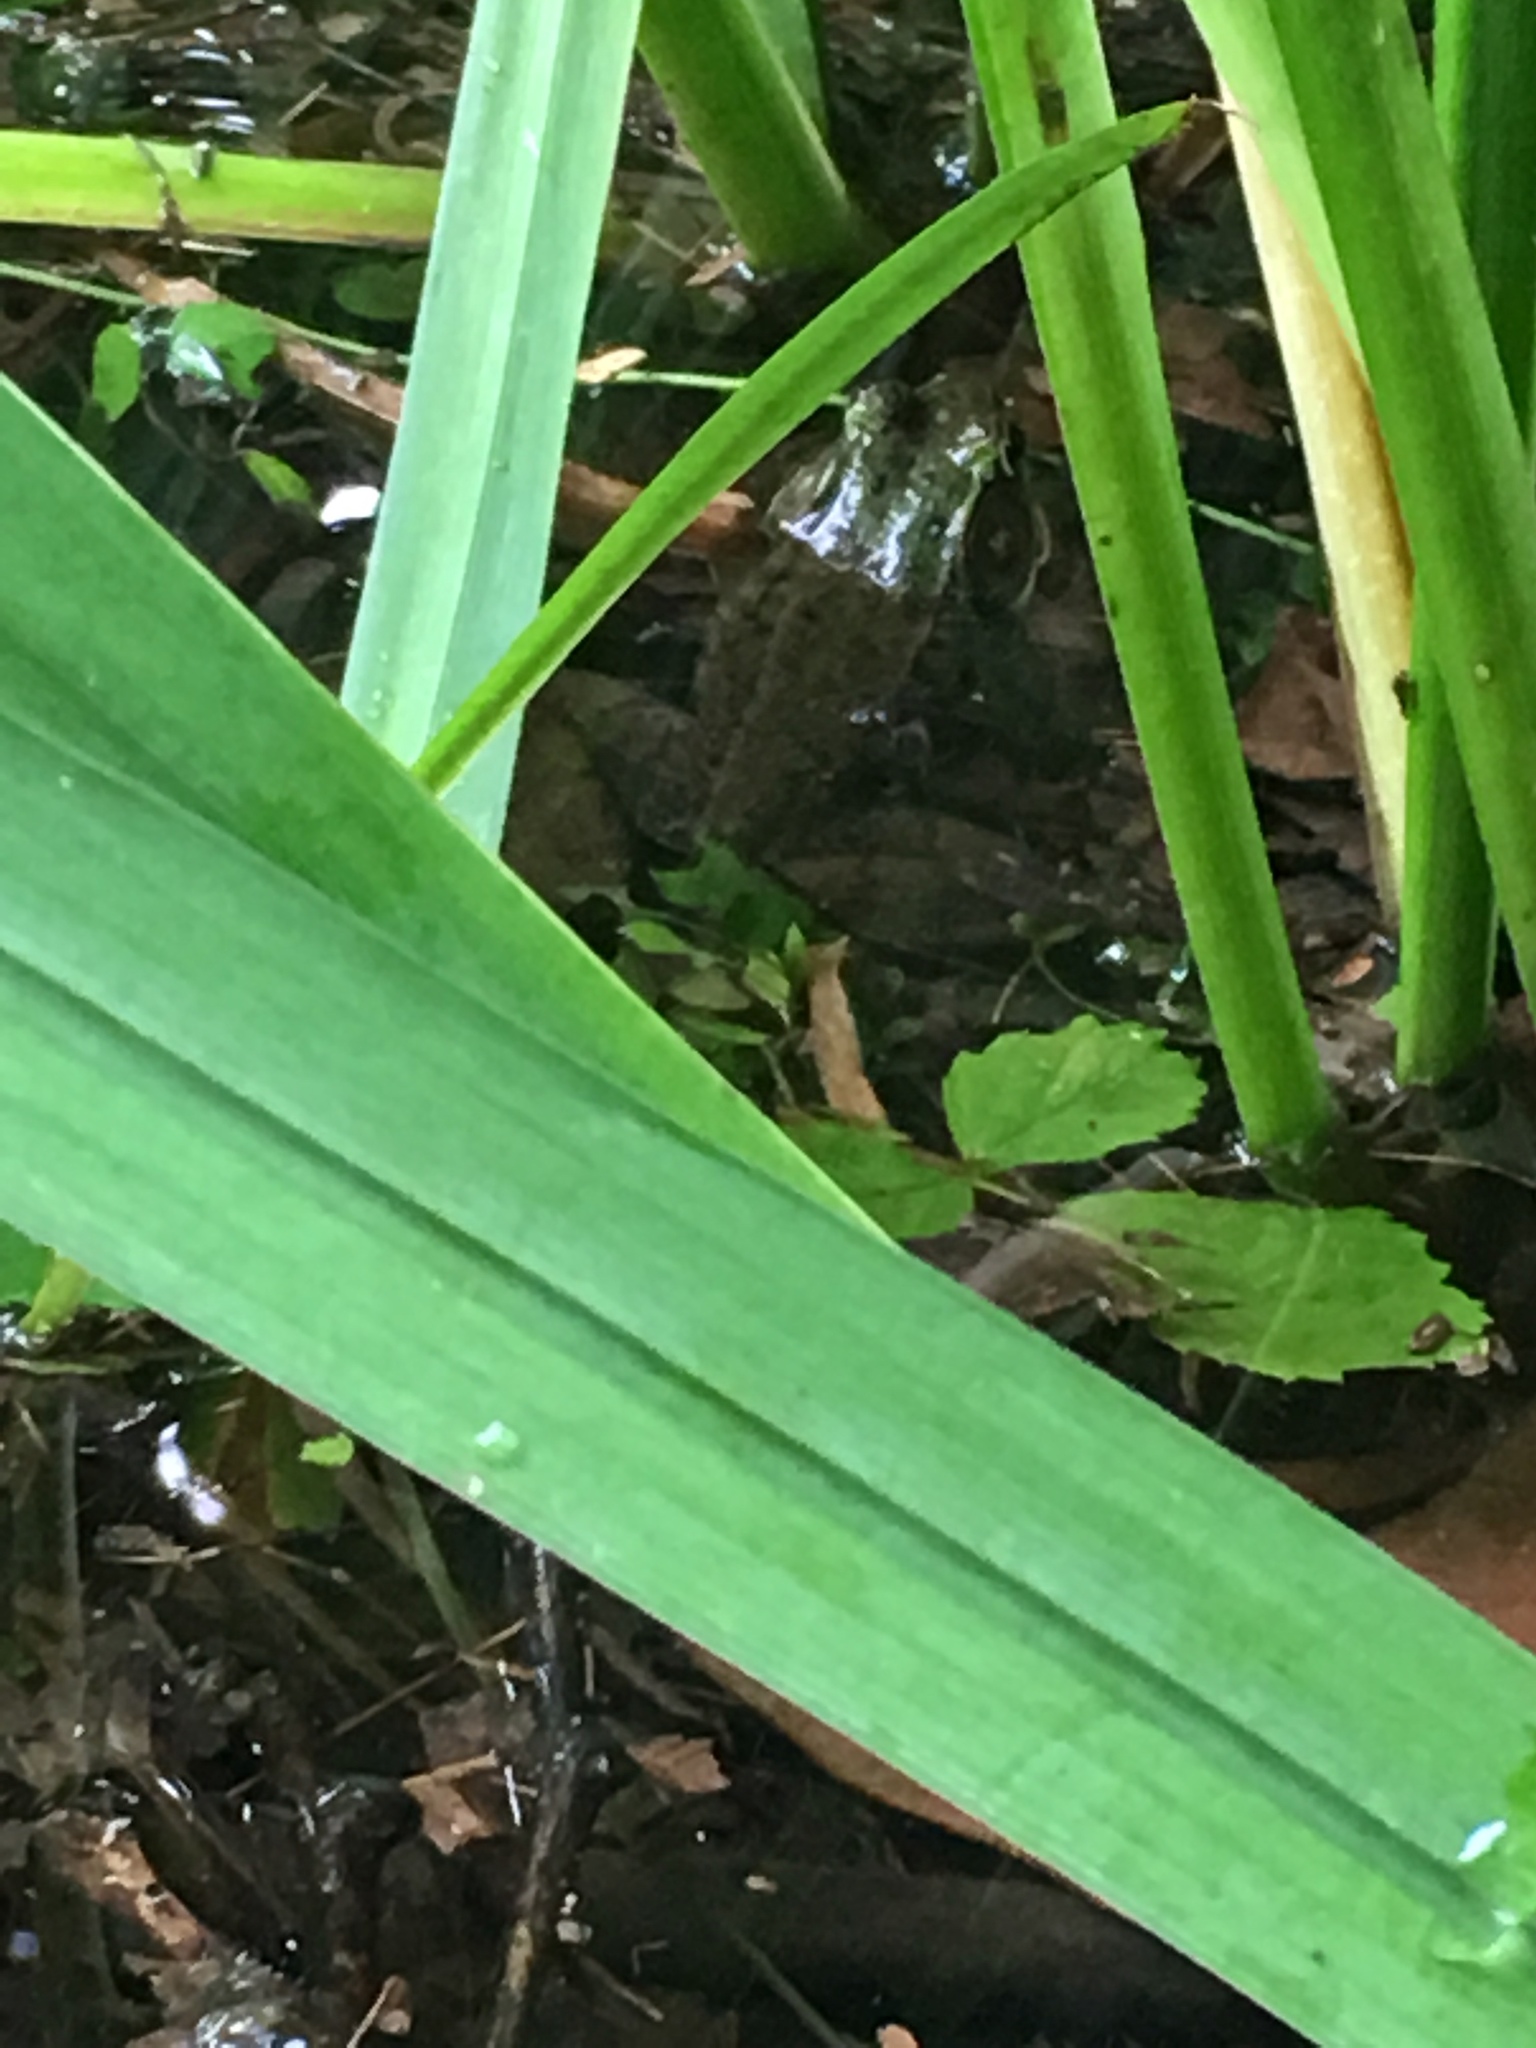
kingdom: Animalia
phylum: Chordata
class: Amphibia
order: Anura
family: Ranidae
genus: Lithobates
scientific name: Lithobates clamitans
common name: Green frog
